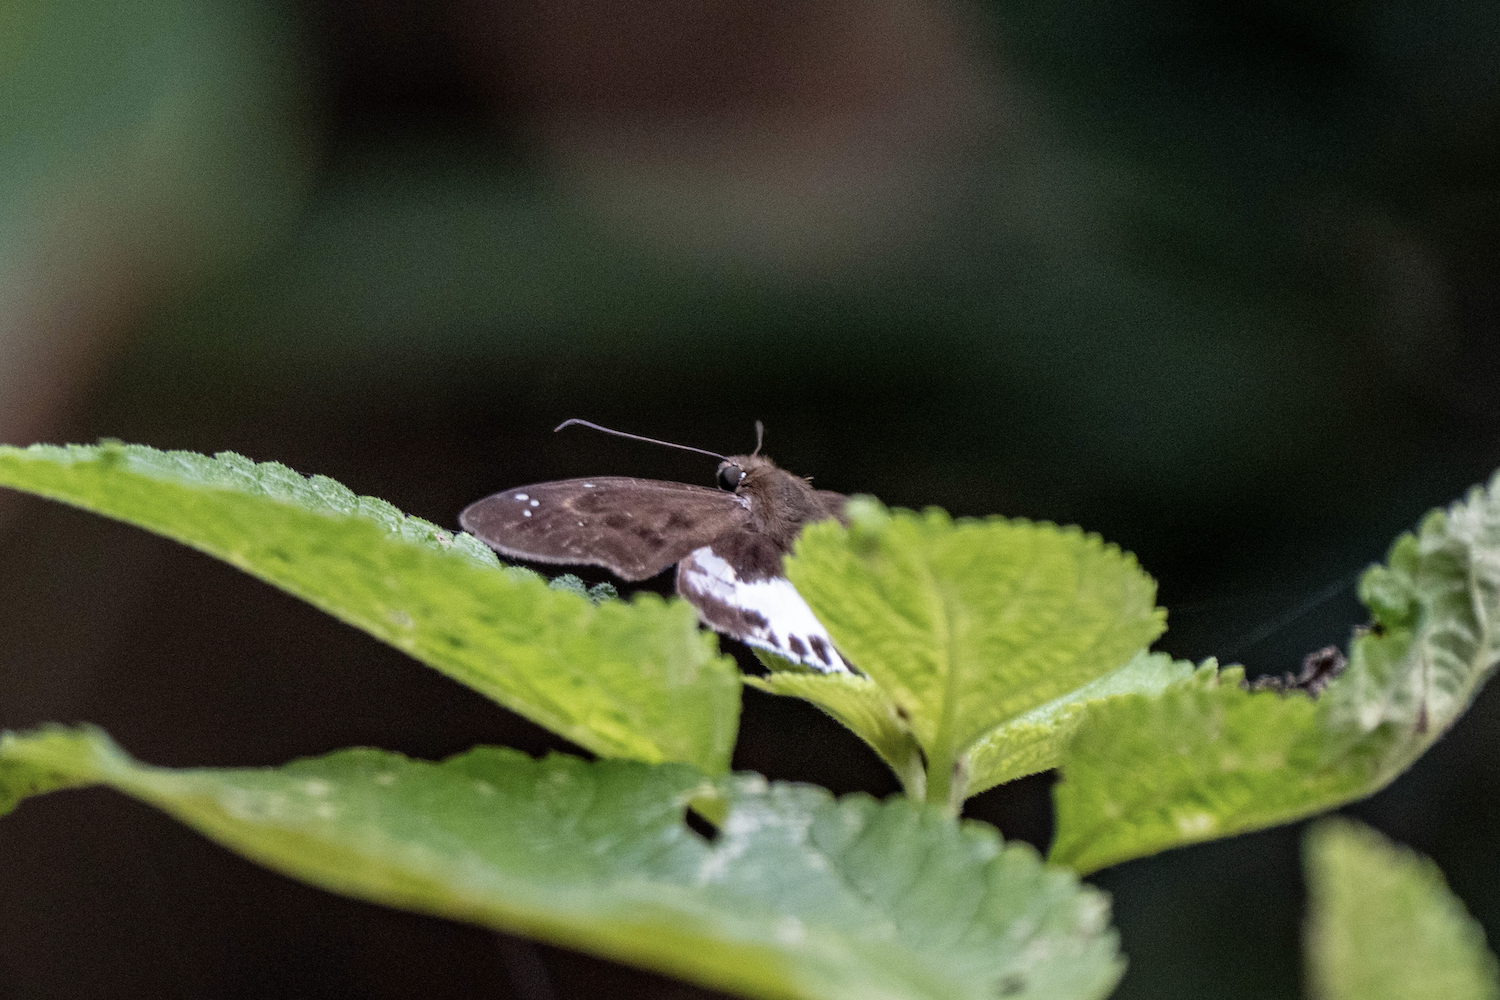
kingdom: Animalia
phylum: Arthropoda
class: Insecta
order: Lepidoptera
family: Hesperiidae
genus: Tagiades
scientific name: Tagiades litigiosa
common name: Water snow flat
